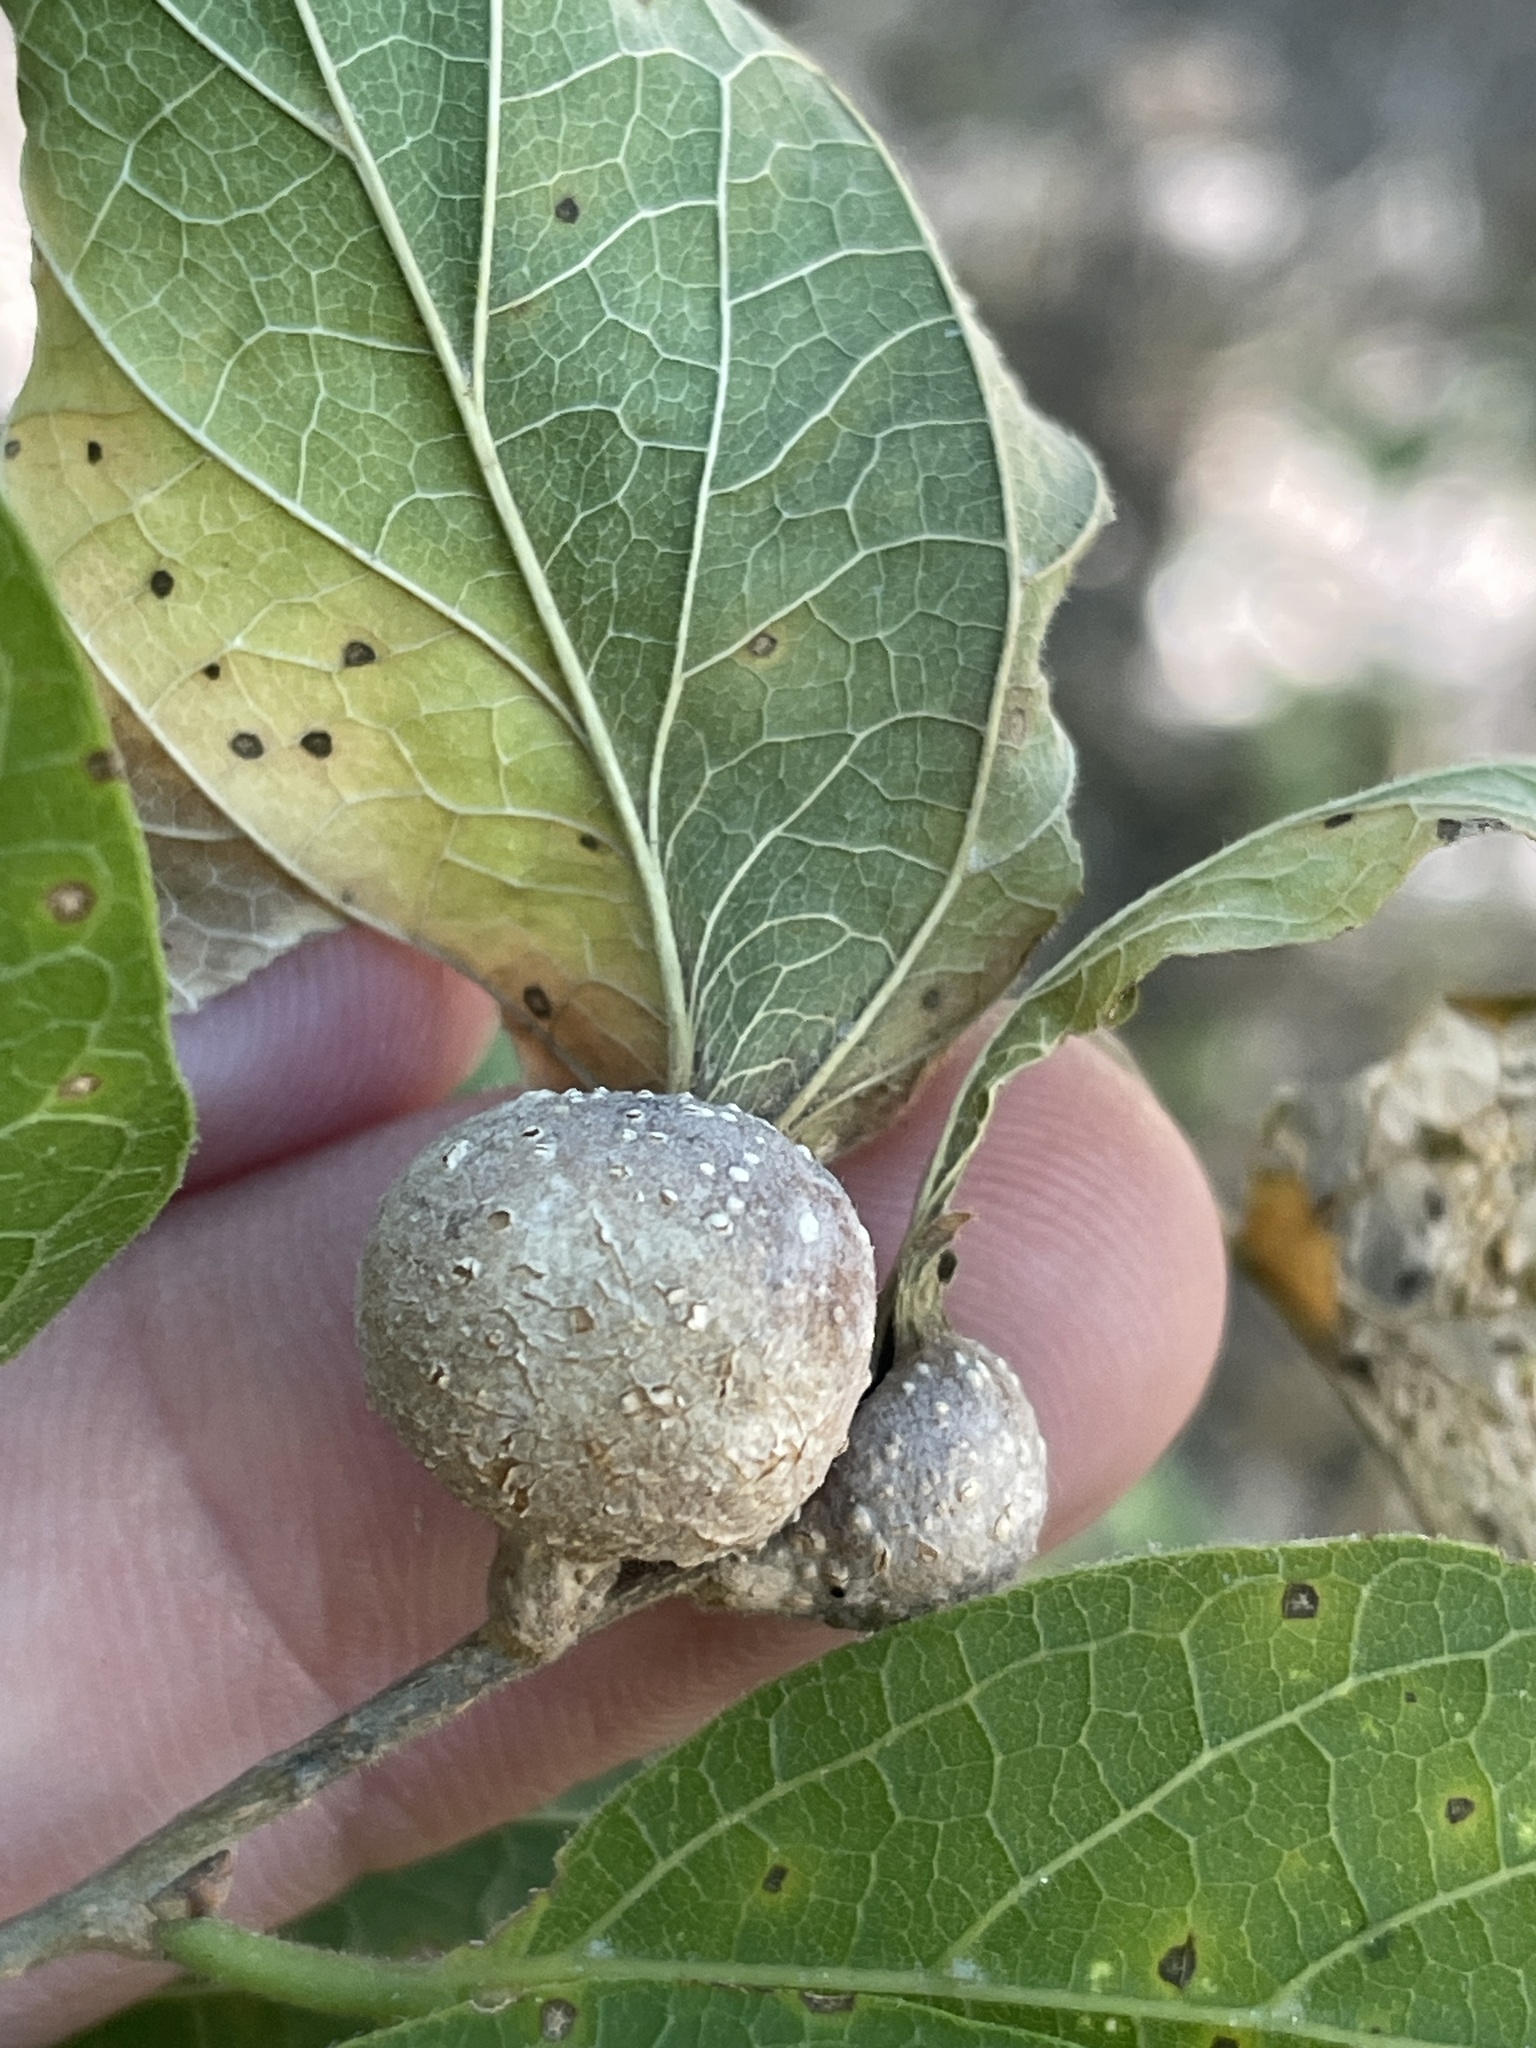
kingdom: Animalia
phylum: Arthropoda
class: Insecta
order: Hemiptera
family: Aphalaridae
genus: Pachypsylla
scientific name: Pachypsylla venusta
